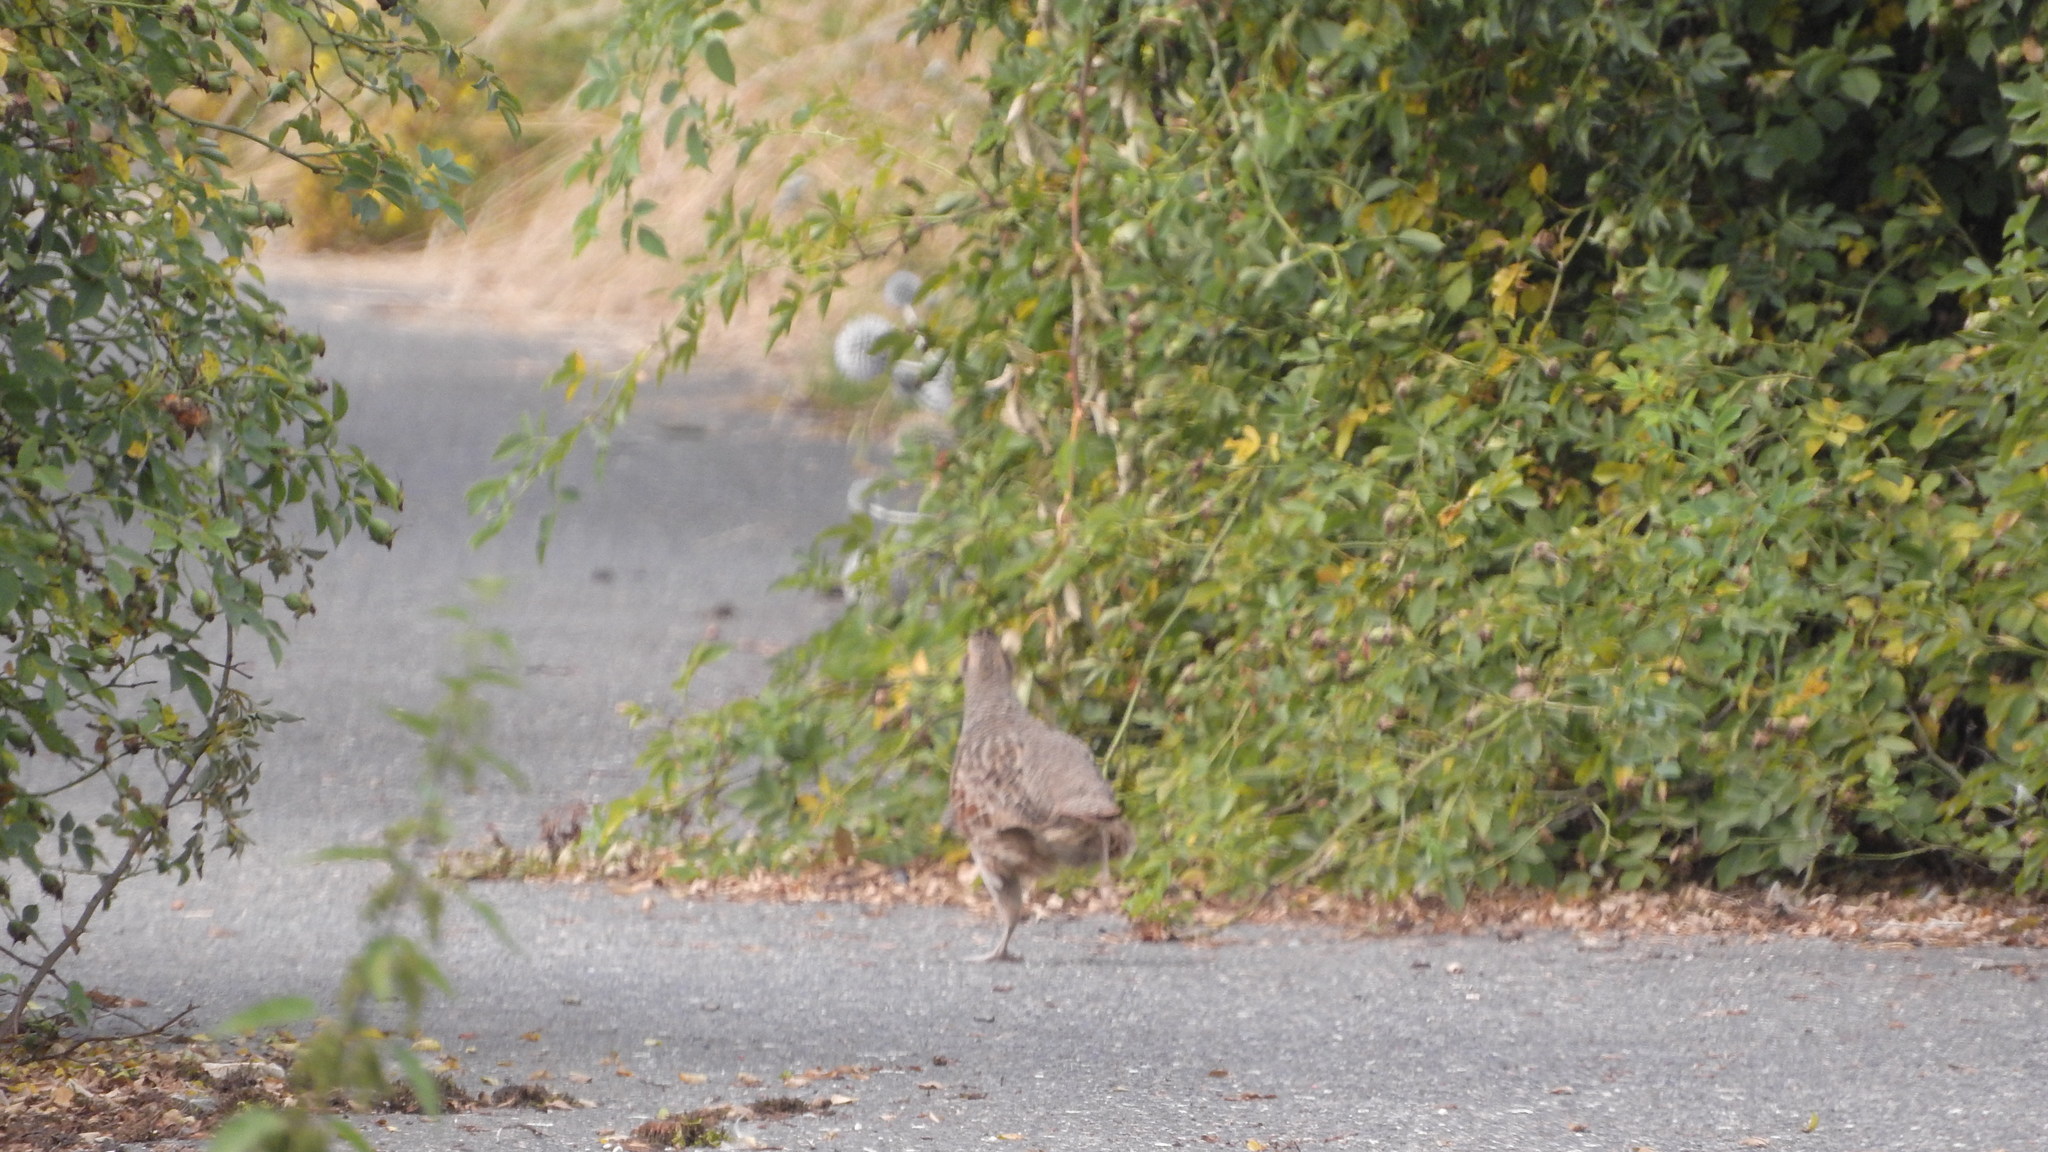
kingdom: Animalia
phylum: Chordata
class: Aves
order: Galliformes
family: Phasianidae
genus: Perdix
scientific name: Perdix perdix
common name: Grey partridge
